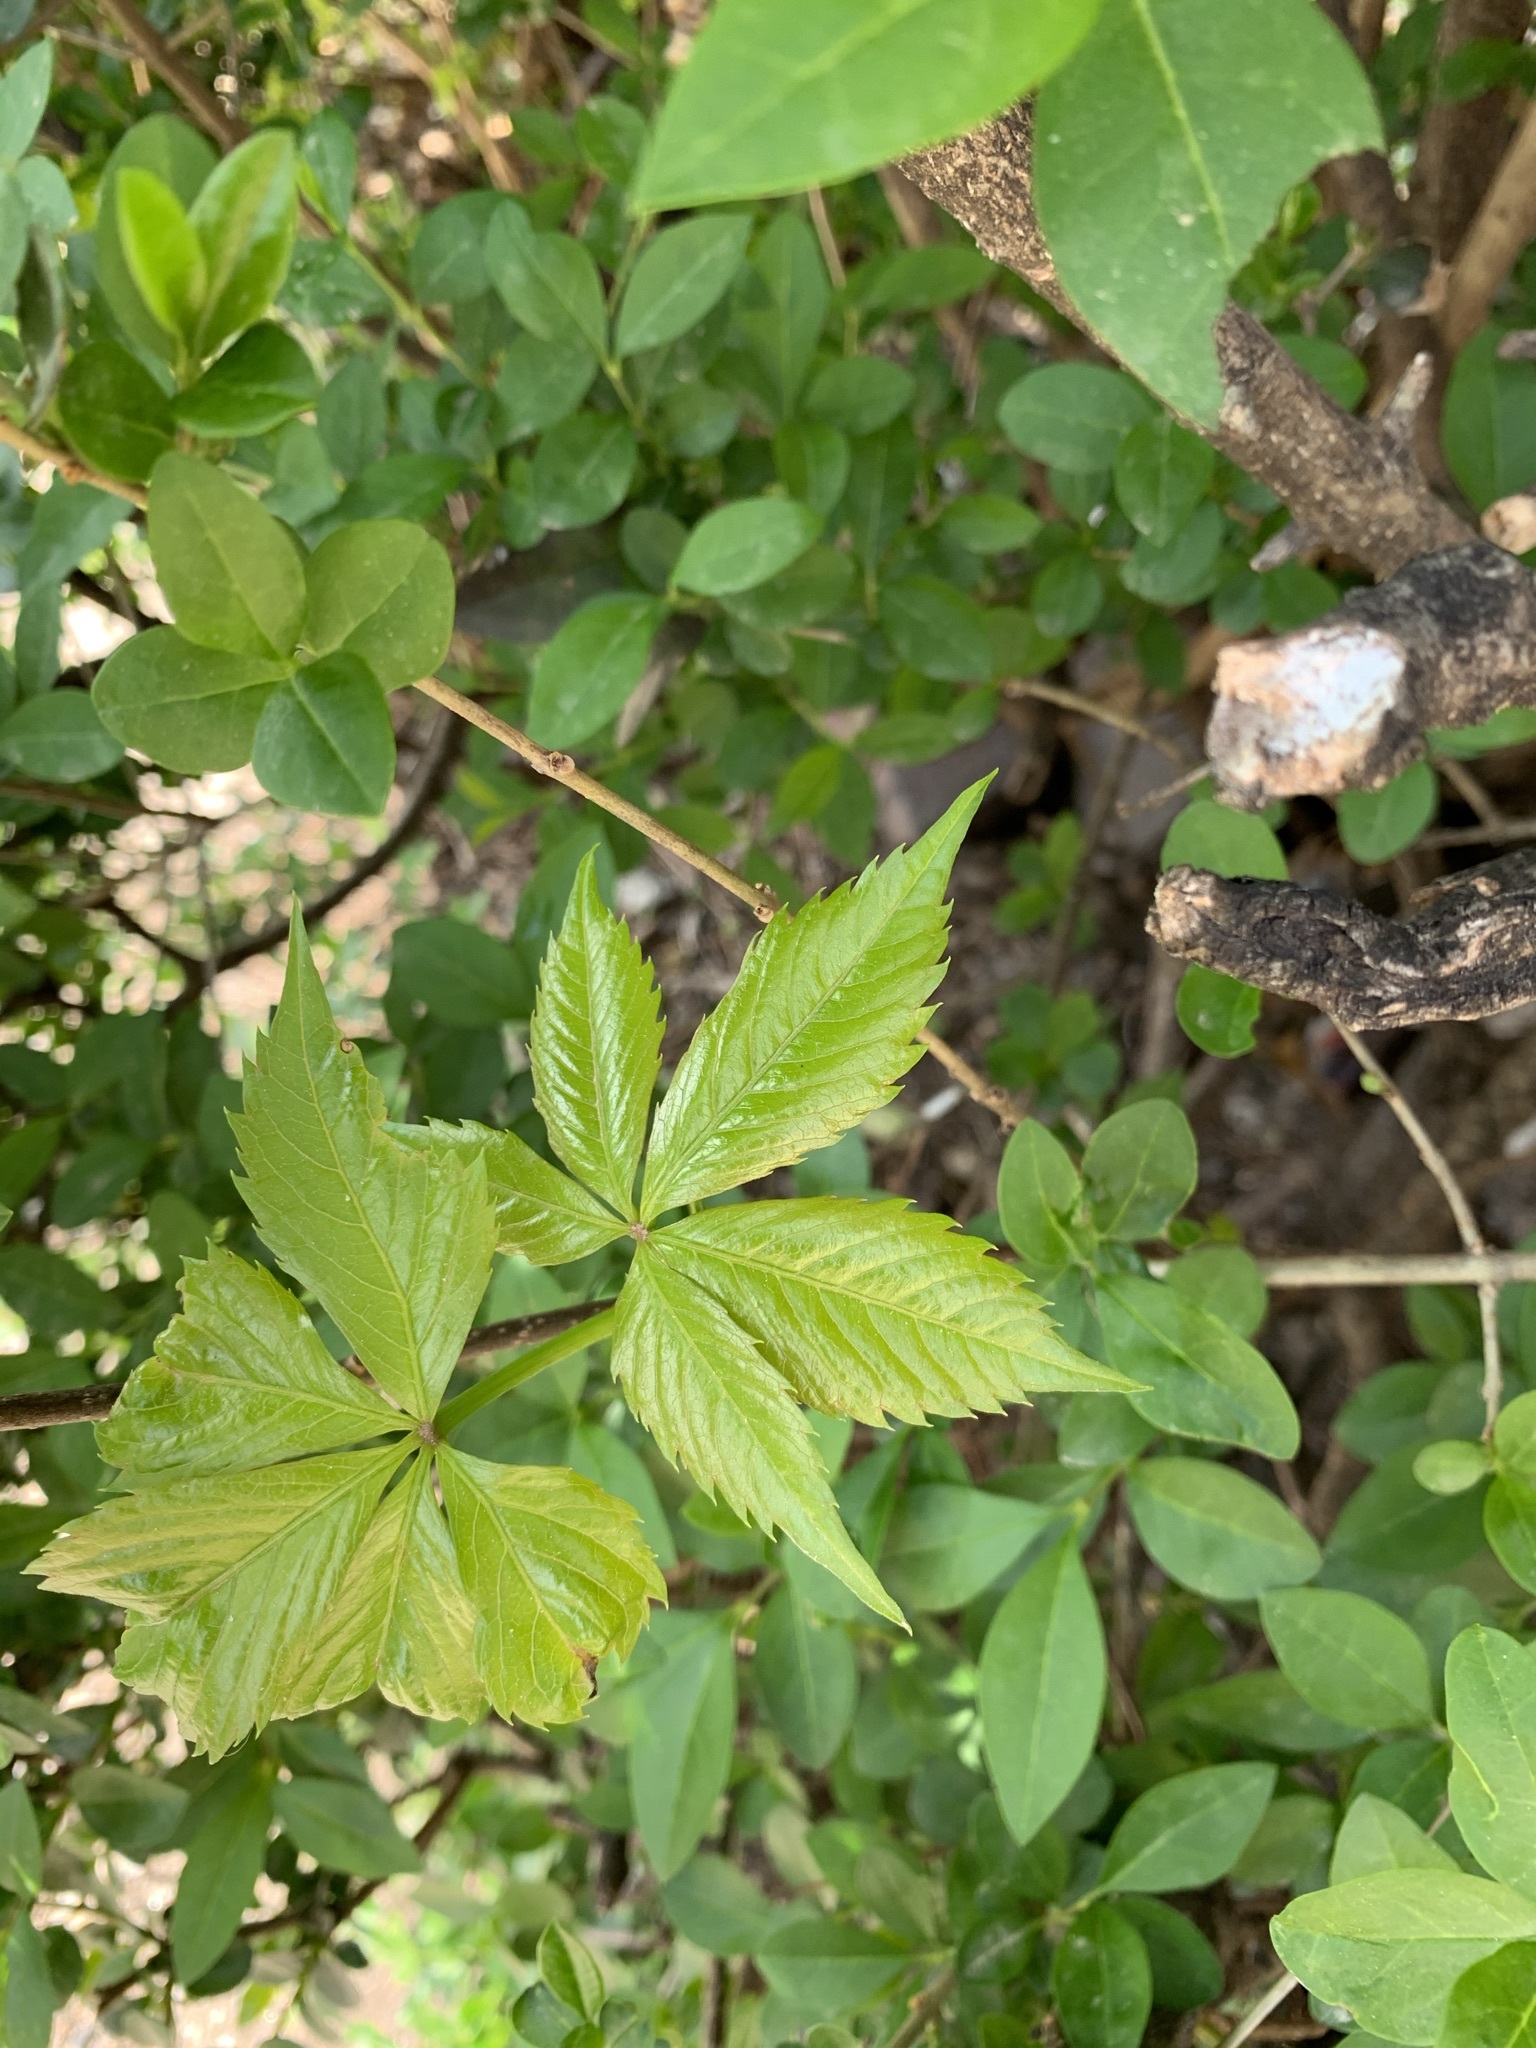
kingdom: Plantae
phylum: Tracheophyta
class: Magnoliopsida
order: Vitales
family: Vitaceae
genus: Parthenocissus
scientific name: Parthenocissus quinquefolia
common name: Virginia-creeper
